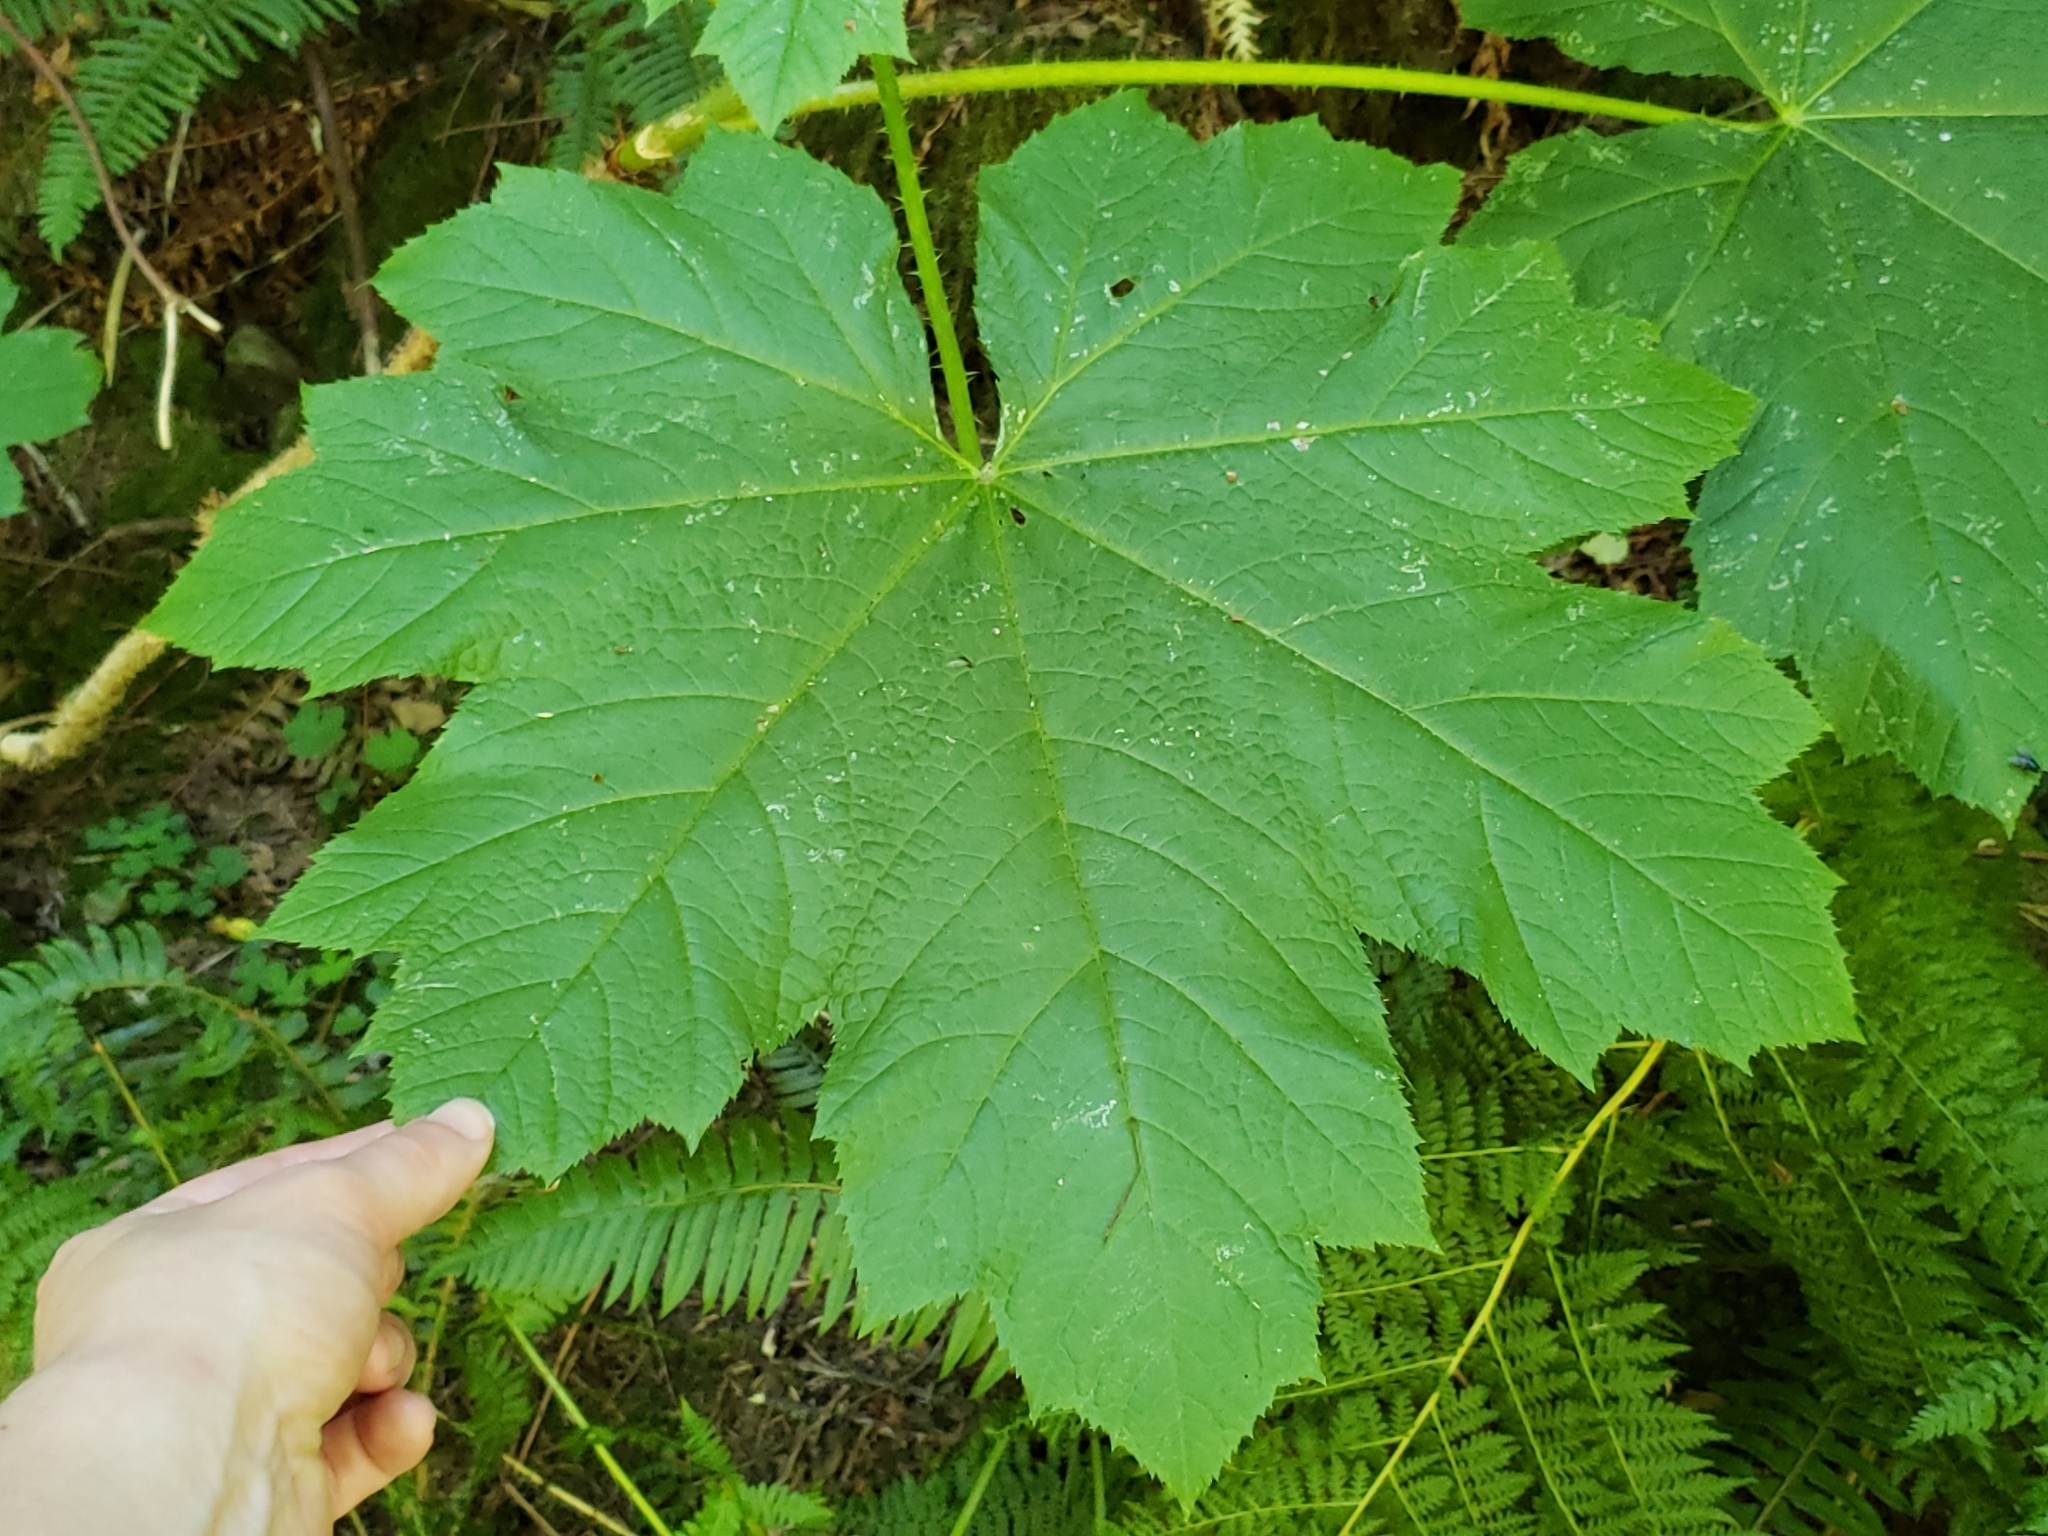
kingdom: Plantae
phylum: Tracheophyta
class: Magnoliopsida
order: Apiales
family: Araliaceae
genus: Oplopanax
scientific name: Oplopanax horridus
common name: Devil's walking-stick
